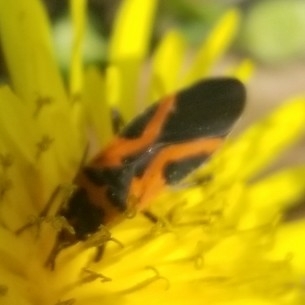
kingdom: Animalia
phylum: Arthropoda
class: Insecta
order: Hemiptera
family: Lygaeidae
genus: Lygaeus
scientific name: Lygaeus turcicus
